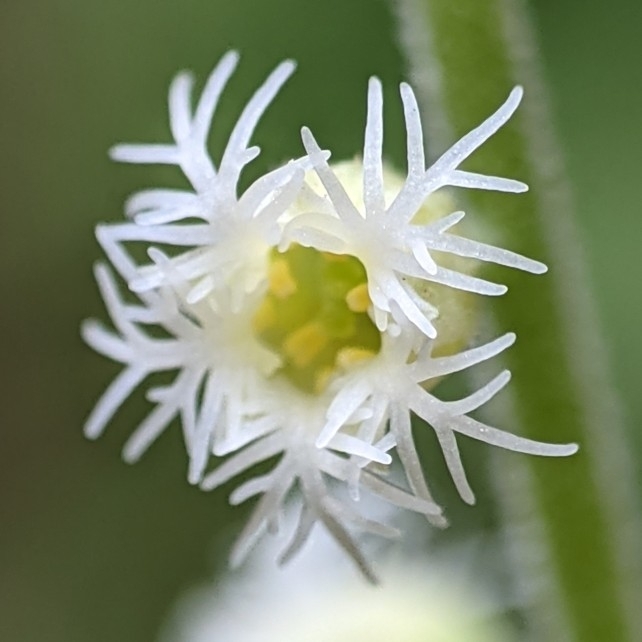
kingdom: Plantae
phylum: Tracheophyta
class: Magnoliopsida
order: Saxifragales
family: Saxifragaceae
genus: Mitella
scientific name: Mitella diphylla
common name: Coolwort
